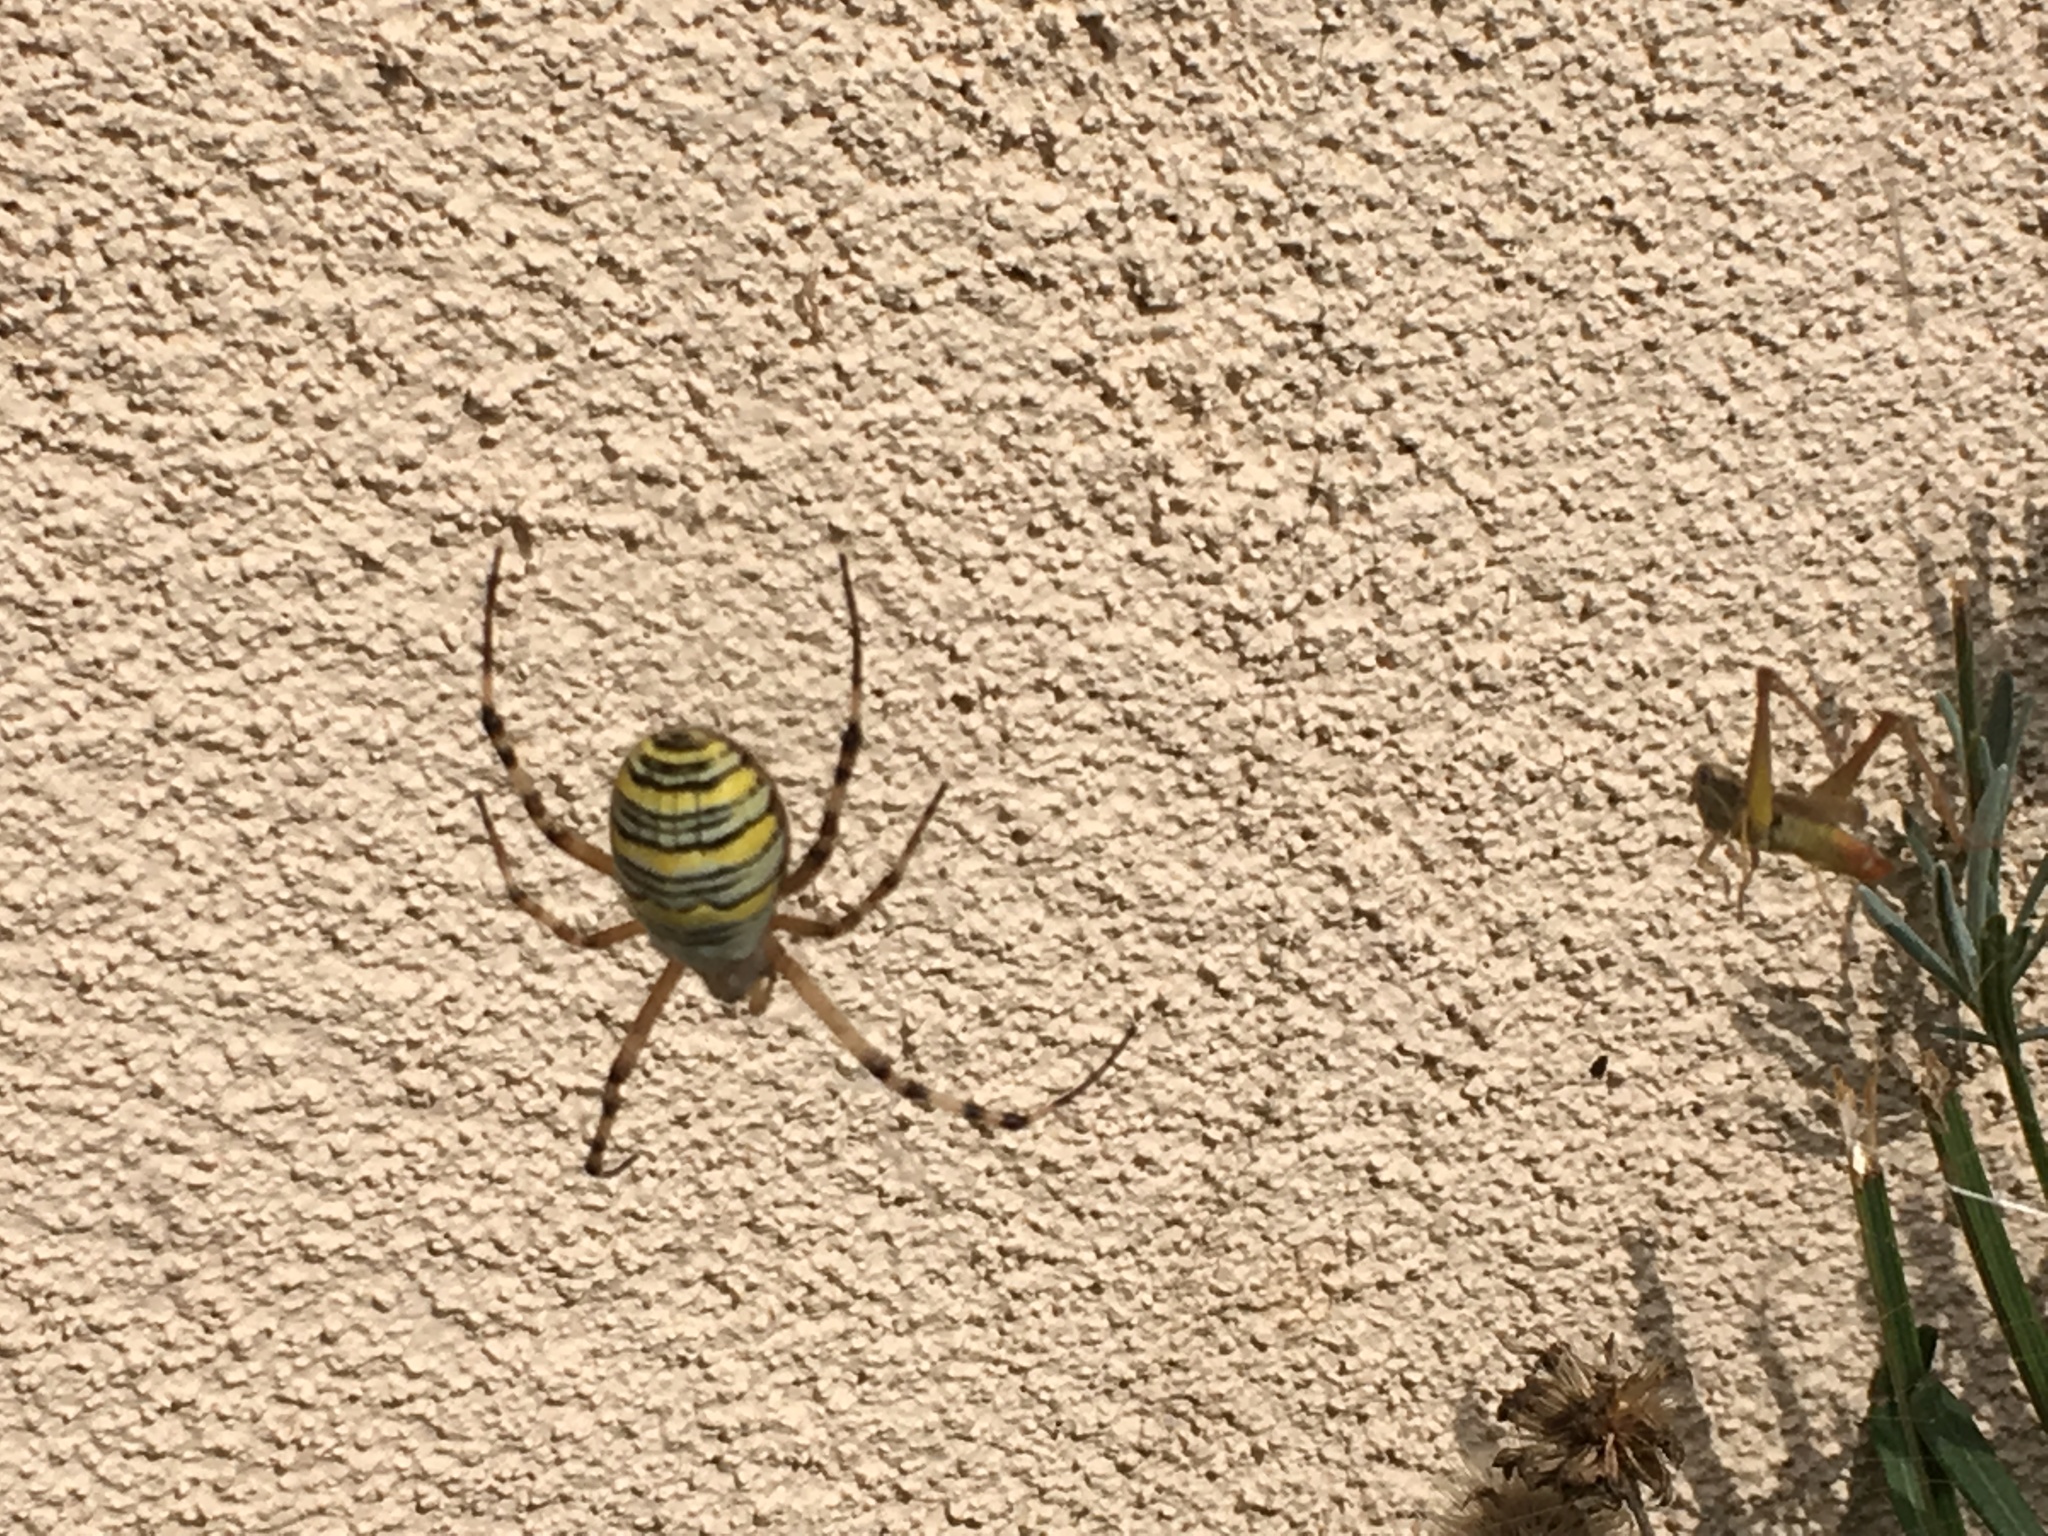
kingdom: Animalia
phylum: Arthropoda
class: Arachnida
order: Araneae
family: Araneidae
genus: Argiope
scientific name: Argiope bruennichi
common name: Wasp spider
